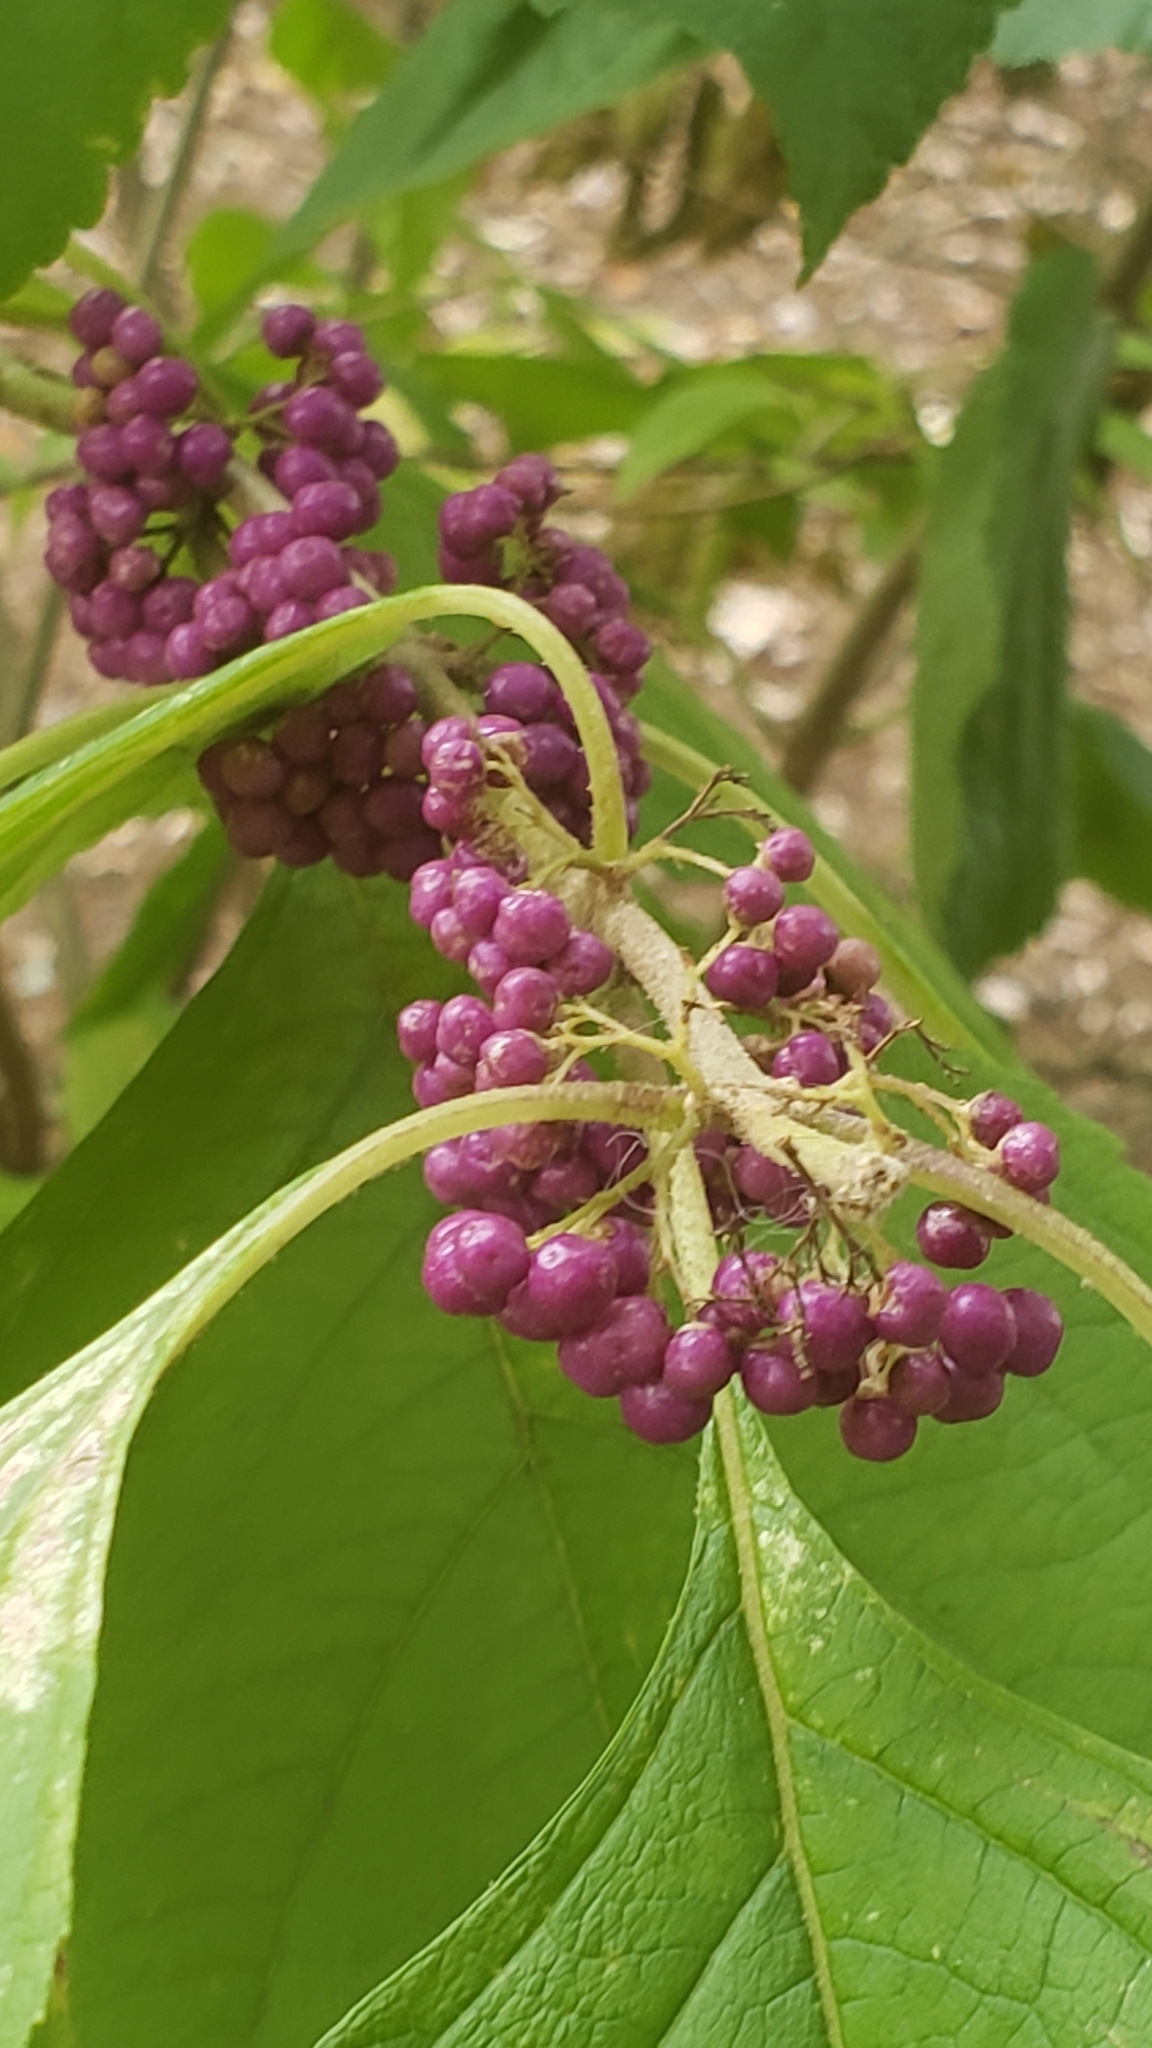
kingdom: Plantae
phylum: Tracheophyta
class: Magnoliopsida
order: Lamiales
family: Lamiaceae
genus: Callicarpa
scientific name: Callicarpa americana
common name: American beautyberry
